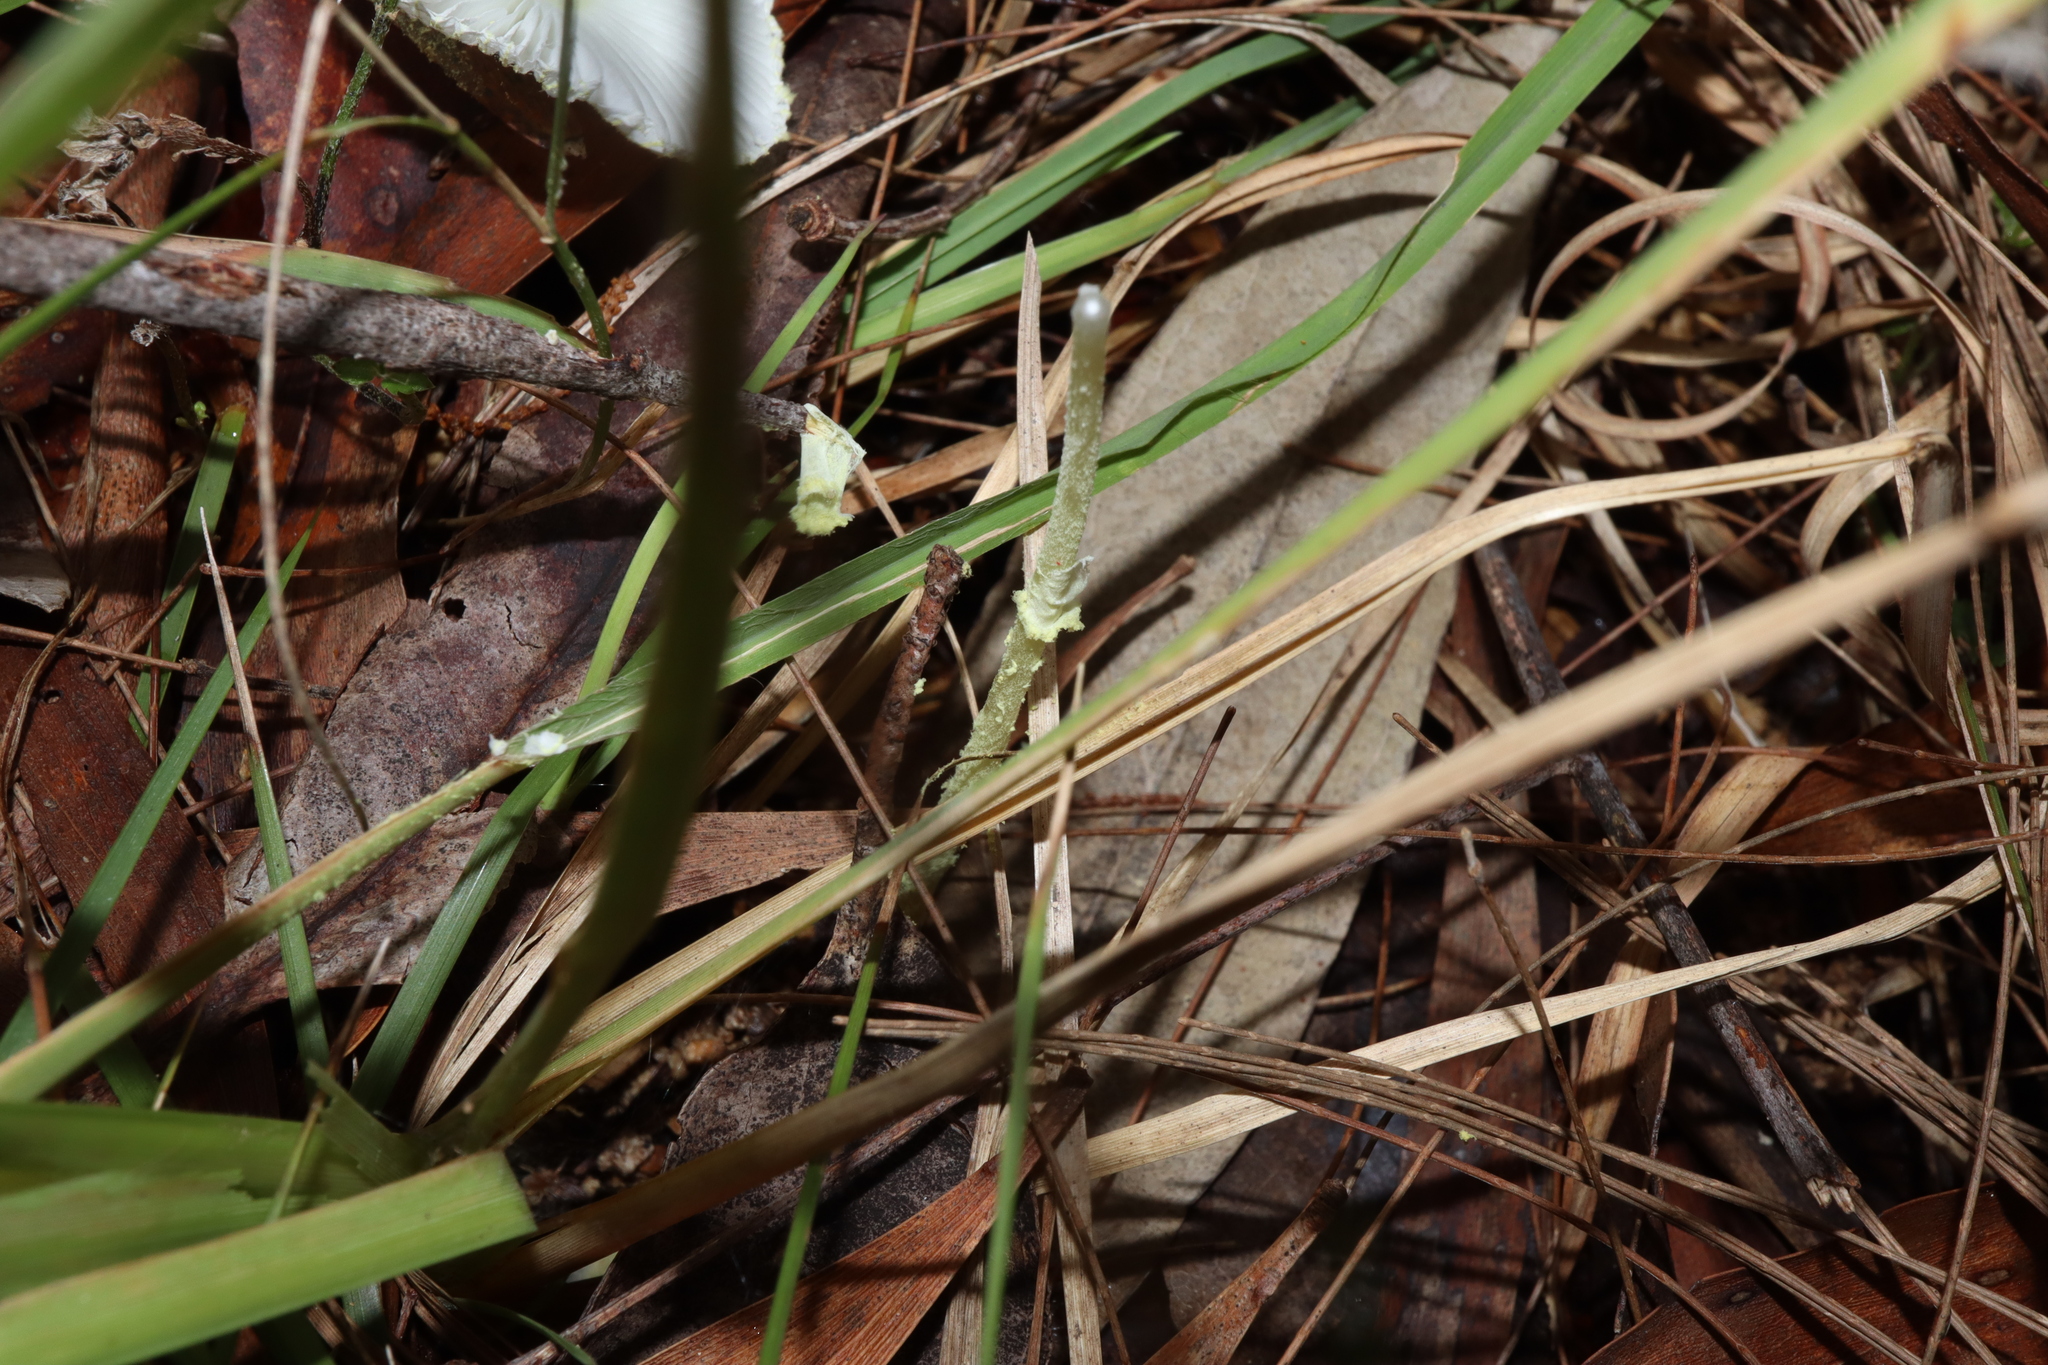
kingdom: Fungi
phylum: Basidiomycota
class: Agaricomycetes
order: Agaricales
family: Agaricaceae
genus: Leucocoprinus
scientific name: Leucocoprinus fragilissimus
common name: Fragile dapperling
